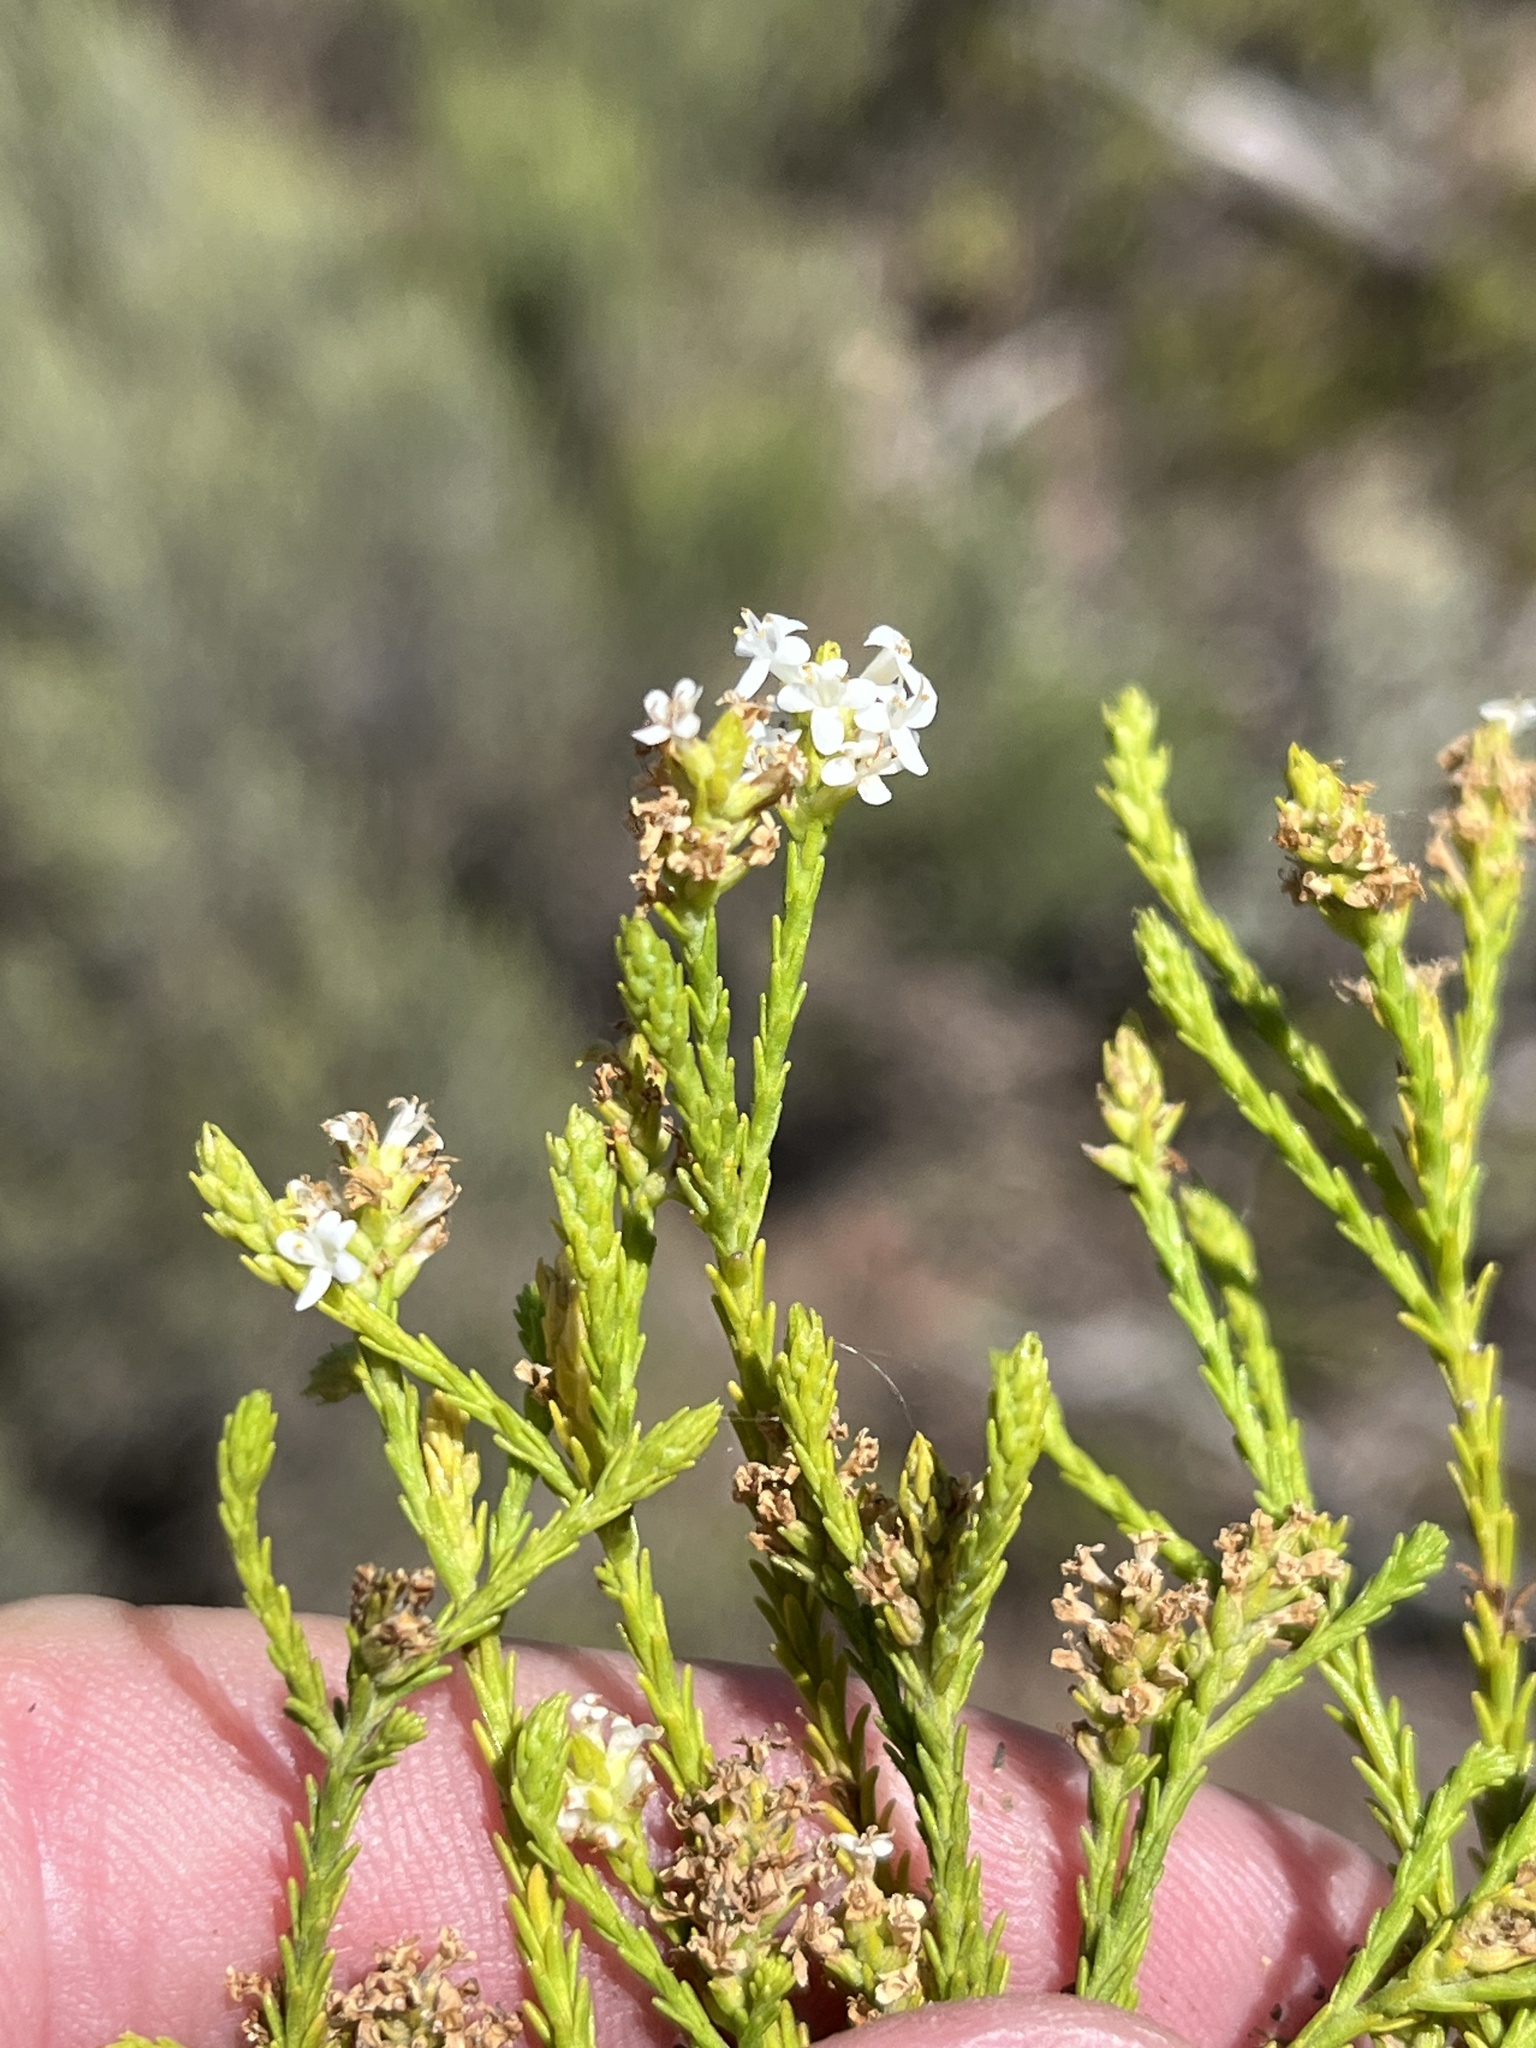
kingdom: Plantae
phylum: Tracheophyta
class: Magnoliopsida
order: Lamiales
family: Scrophulariaceae
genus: Selago
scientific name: Selago thomii
